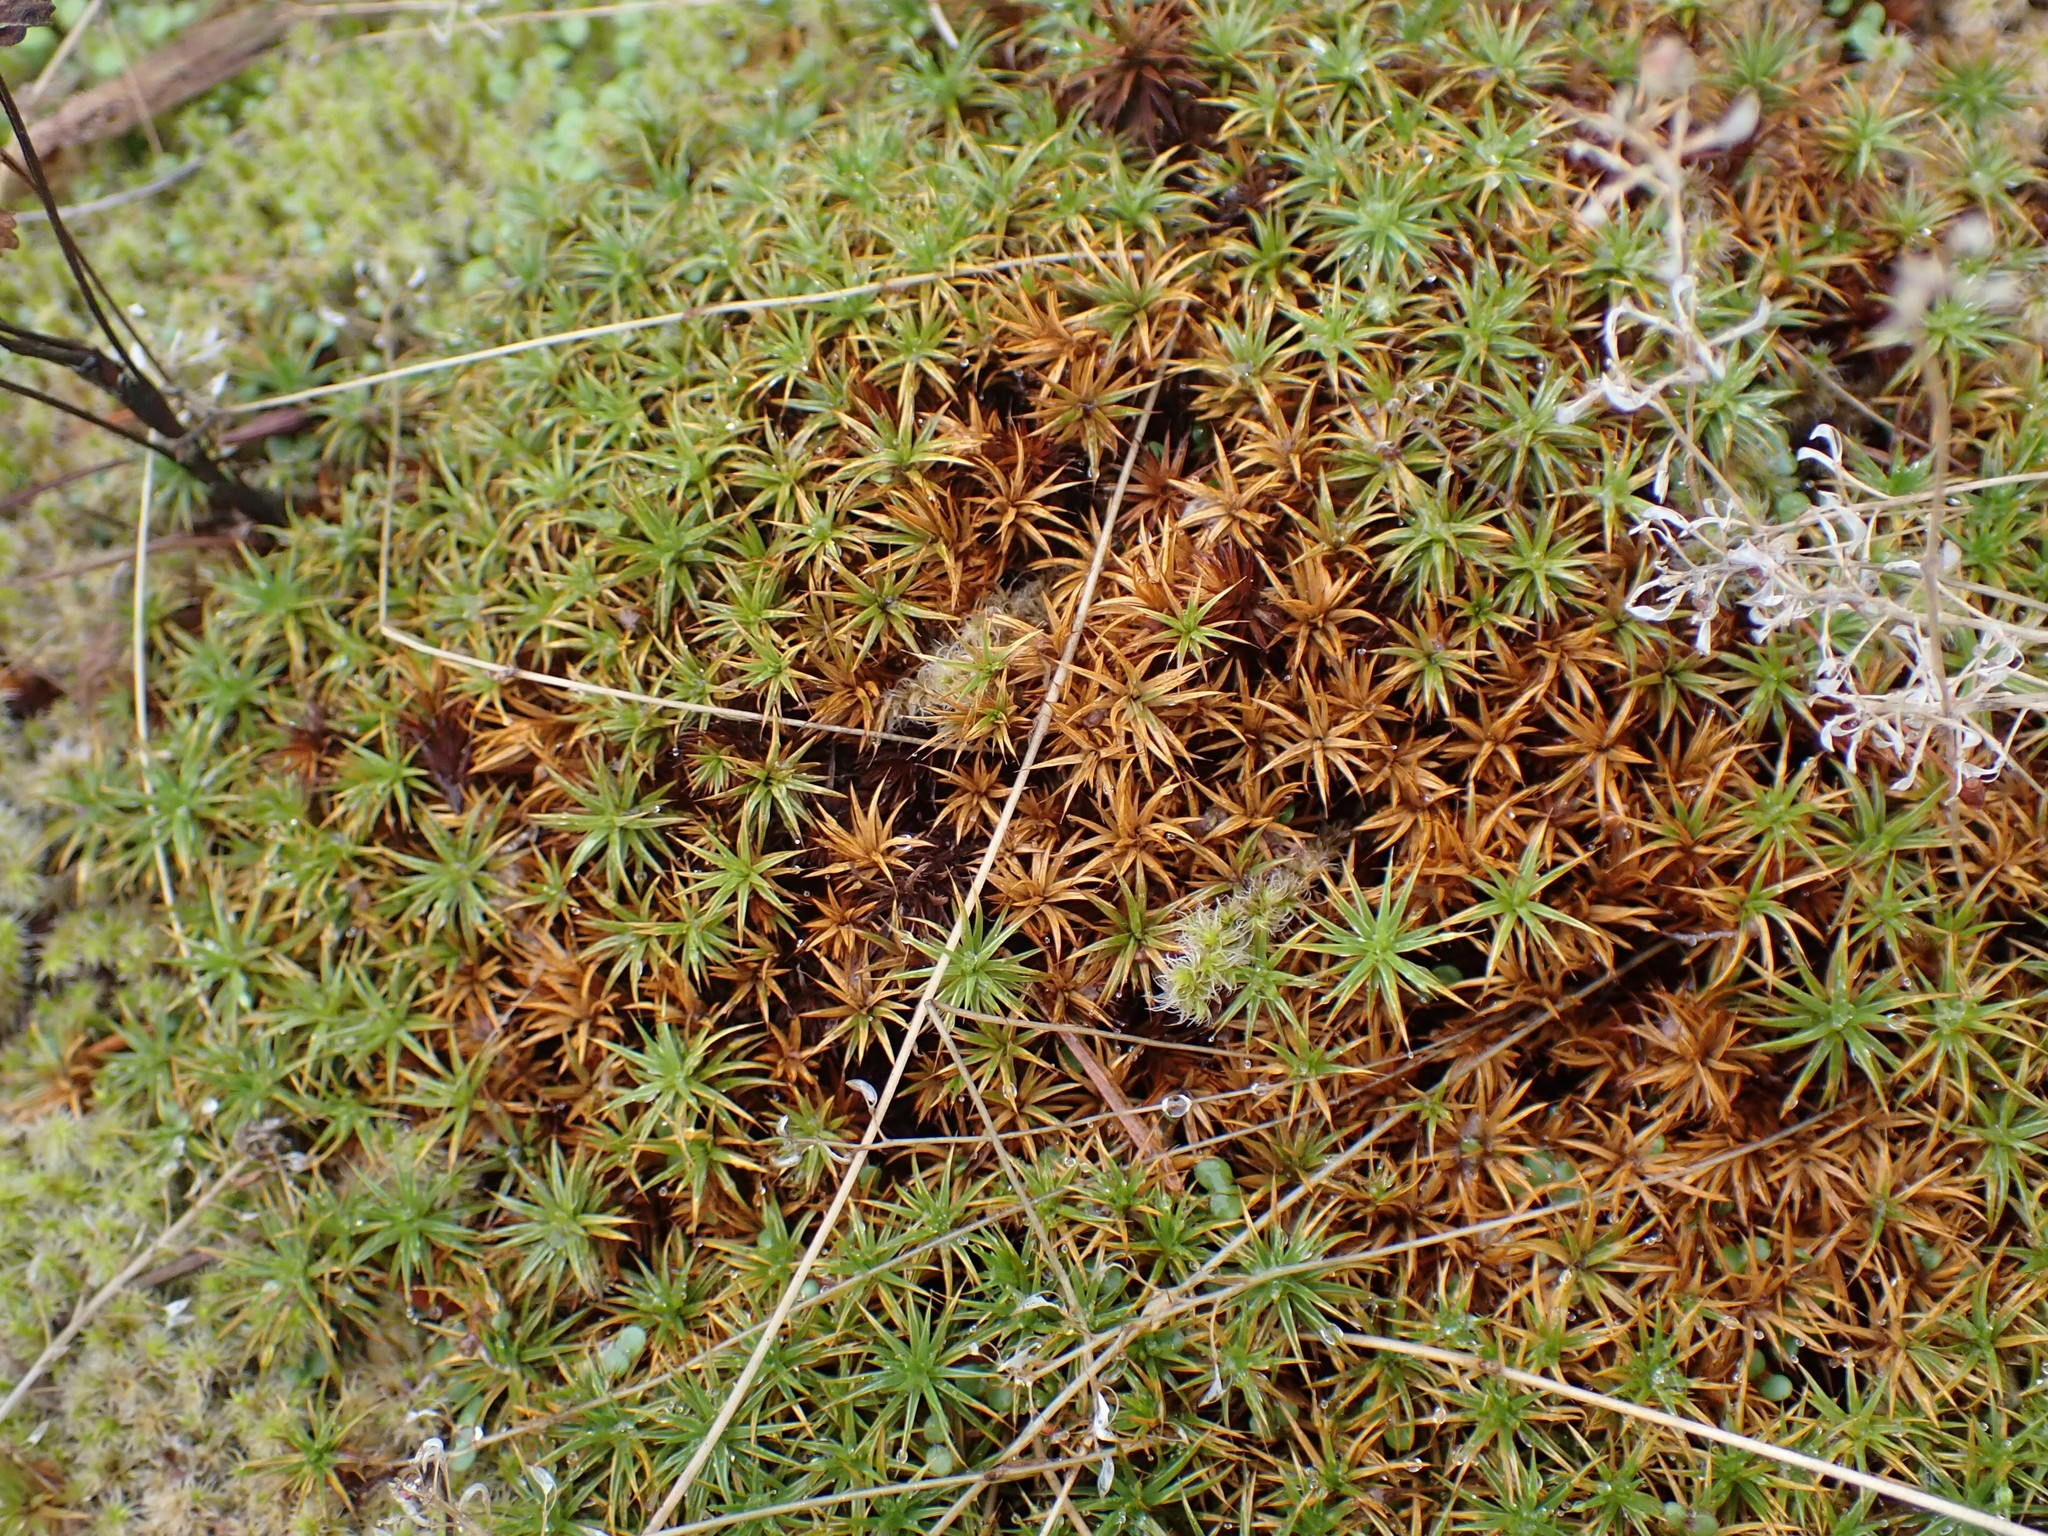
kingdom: Plantae
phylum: Bryophyta
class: Polytrichopsida
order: Polytrichales
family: Polytrichaceae
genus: Polytrichum
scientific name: Polytrichum juniperinum
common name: Juniper haircap moss
